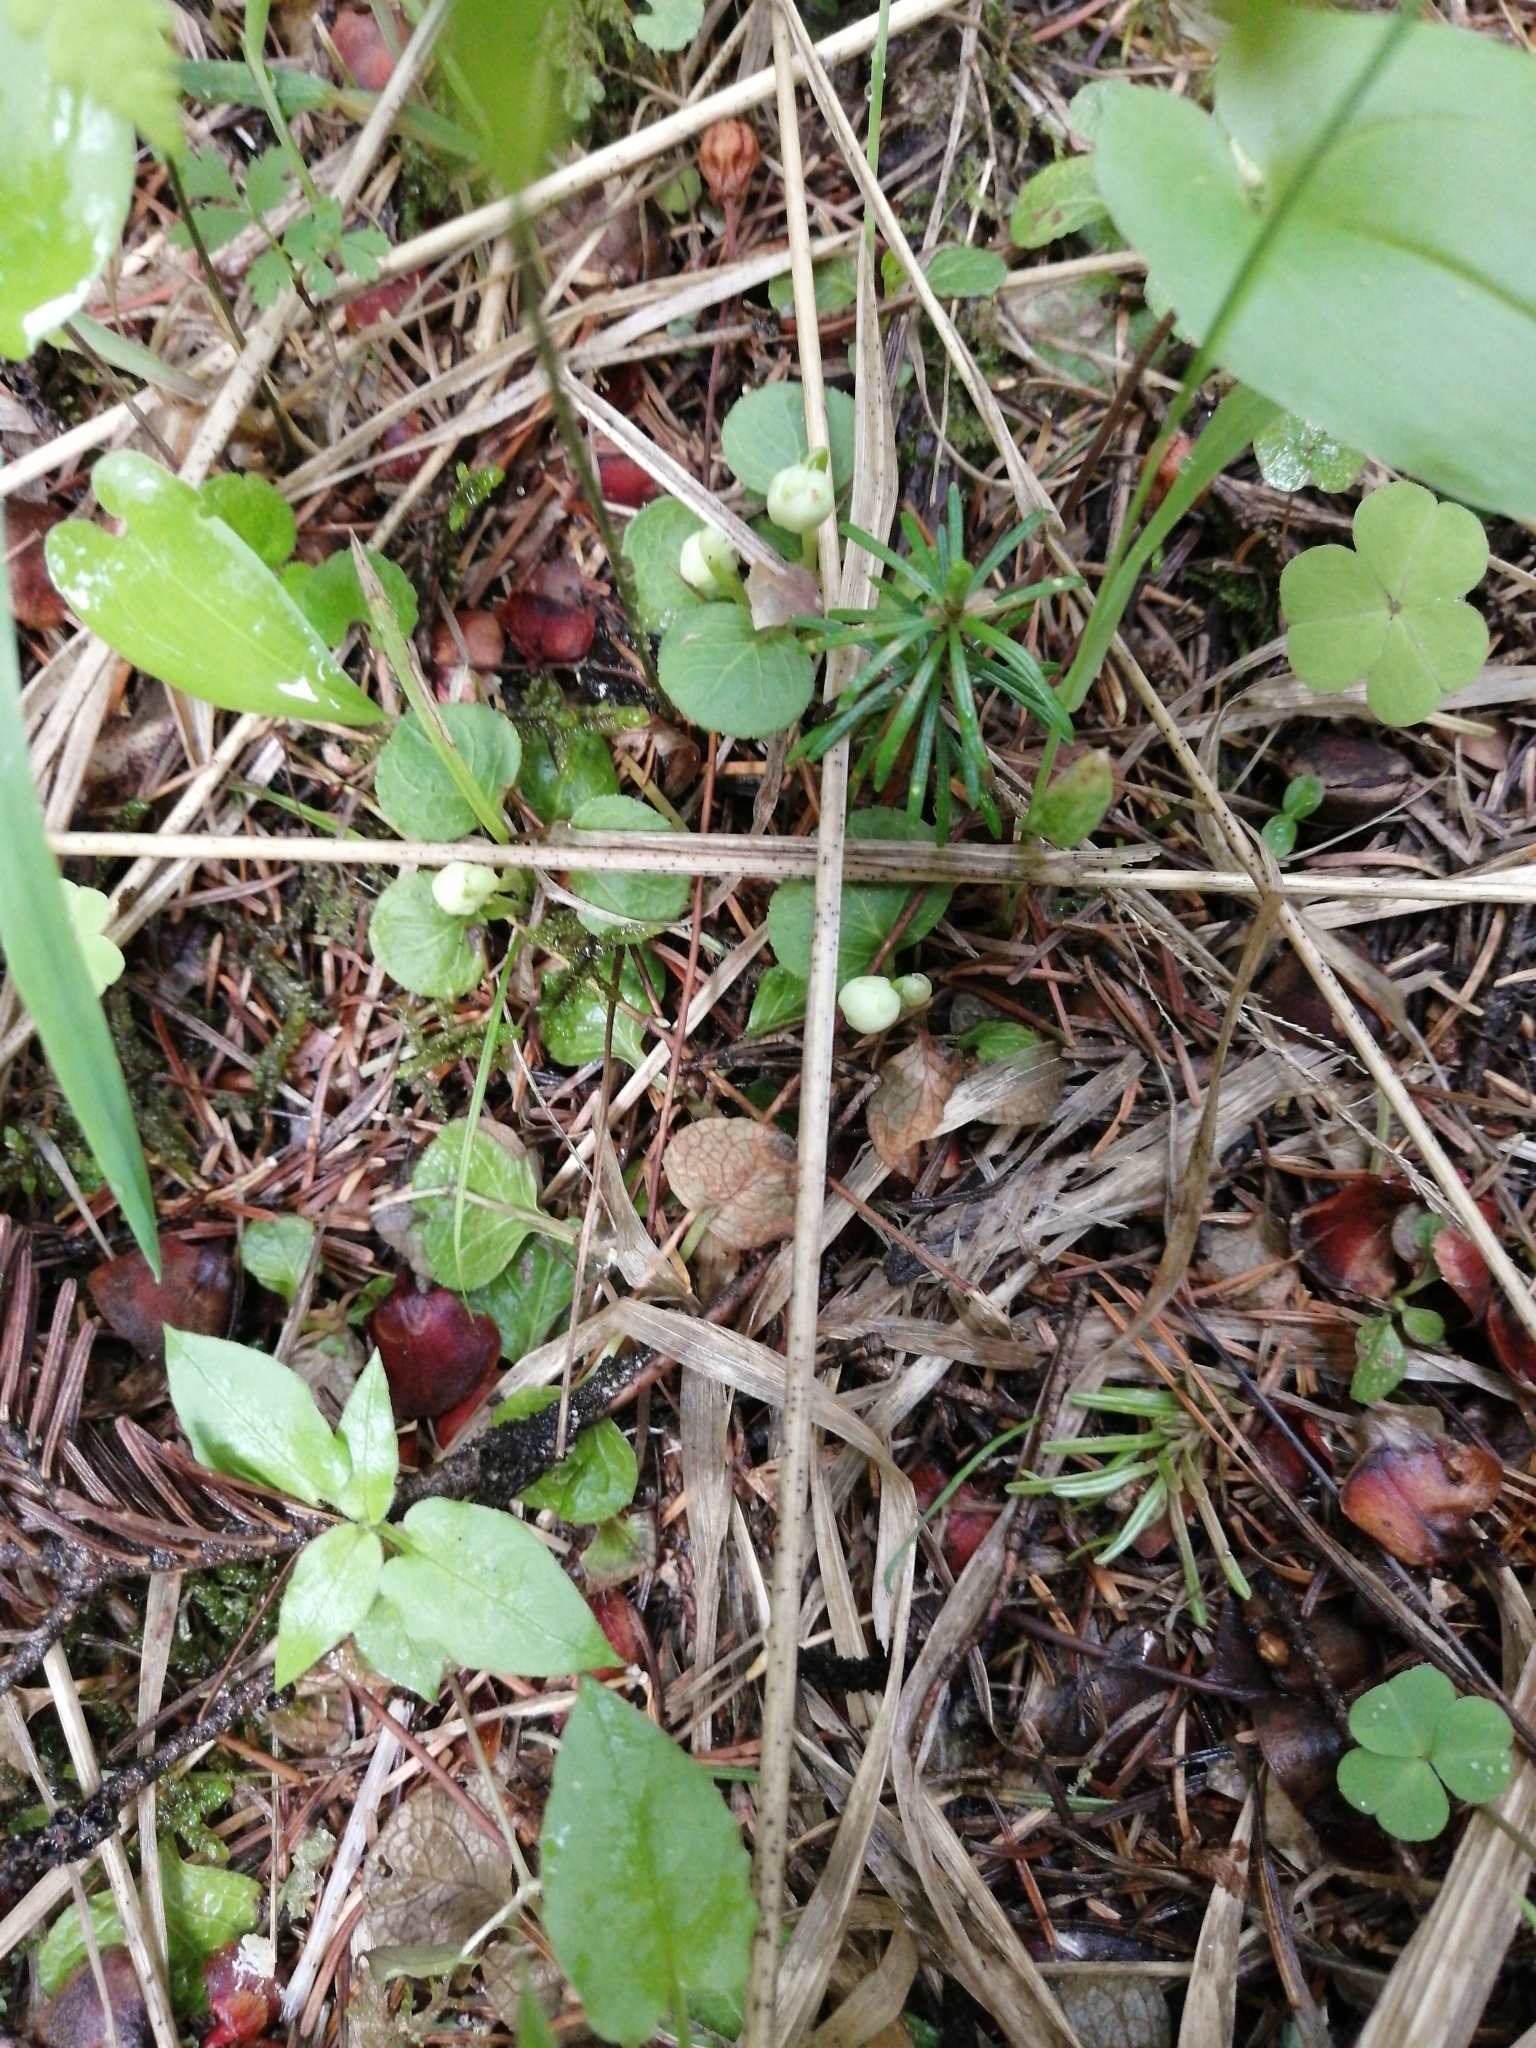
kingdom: Plantae
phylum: Tracheophyta
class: Magnoliopsida
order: Ericales
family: Ericaceae
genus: Moneses
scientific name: Moneses uniflora
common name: One-flowered wintergreen
